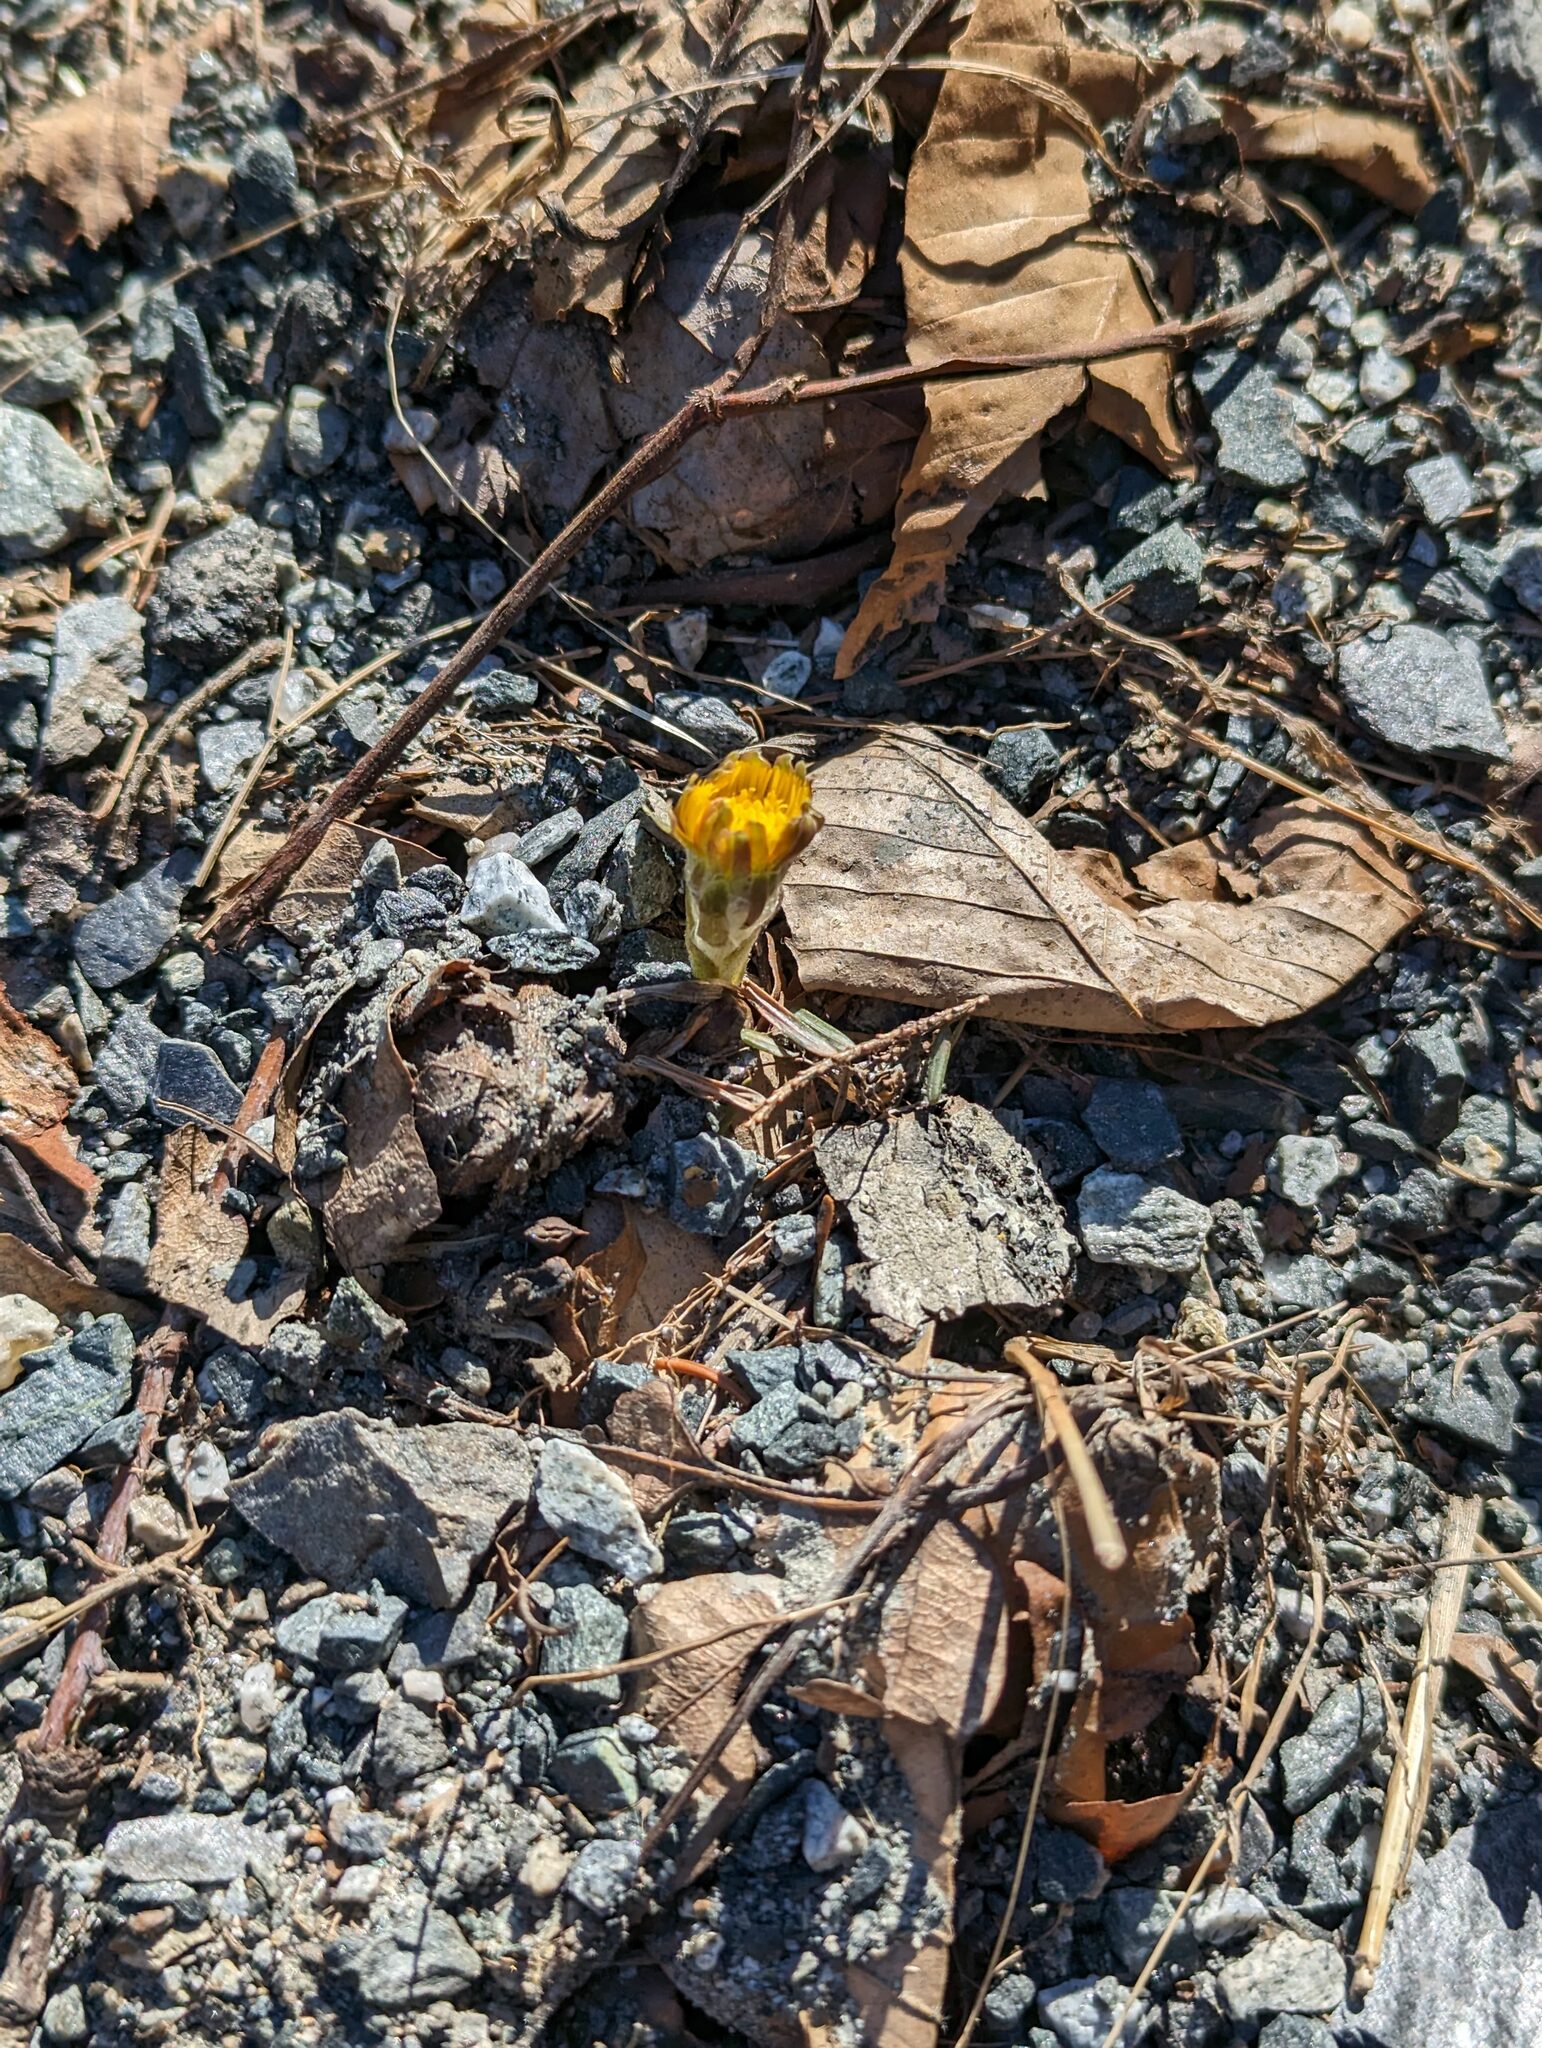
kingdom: Plantae
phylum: Tracheophyta
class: Magnoliopsida
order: Asterales
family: Asteraceae
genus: Tussilago
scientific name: Tussilago farfara
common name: Coltsfoot
